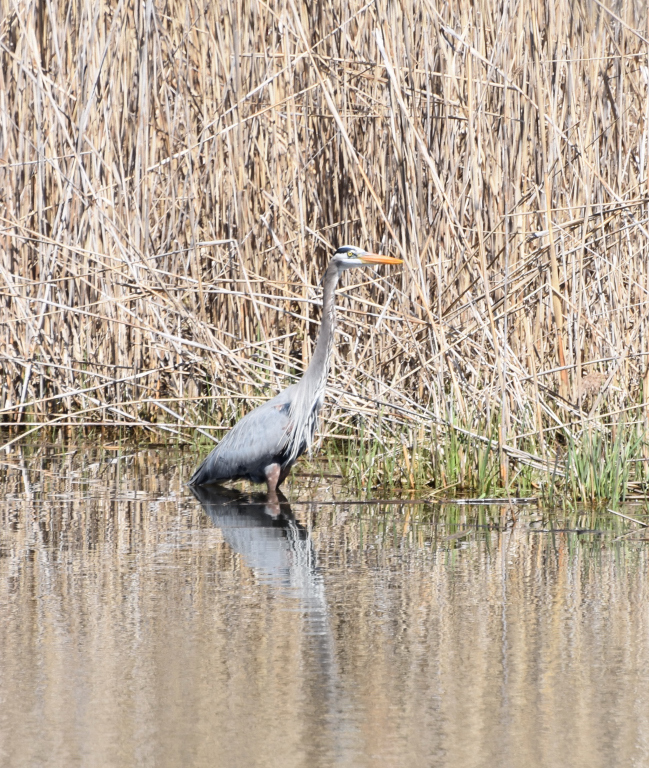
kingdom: Animalia
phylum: Chordata
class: Aves
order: Pelecaniformes
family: Ardeidae
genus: Ardea
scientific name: Ardea herodias
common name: Great blue heron
